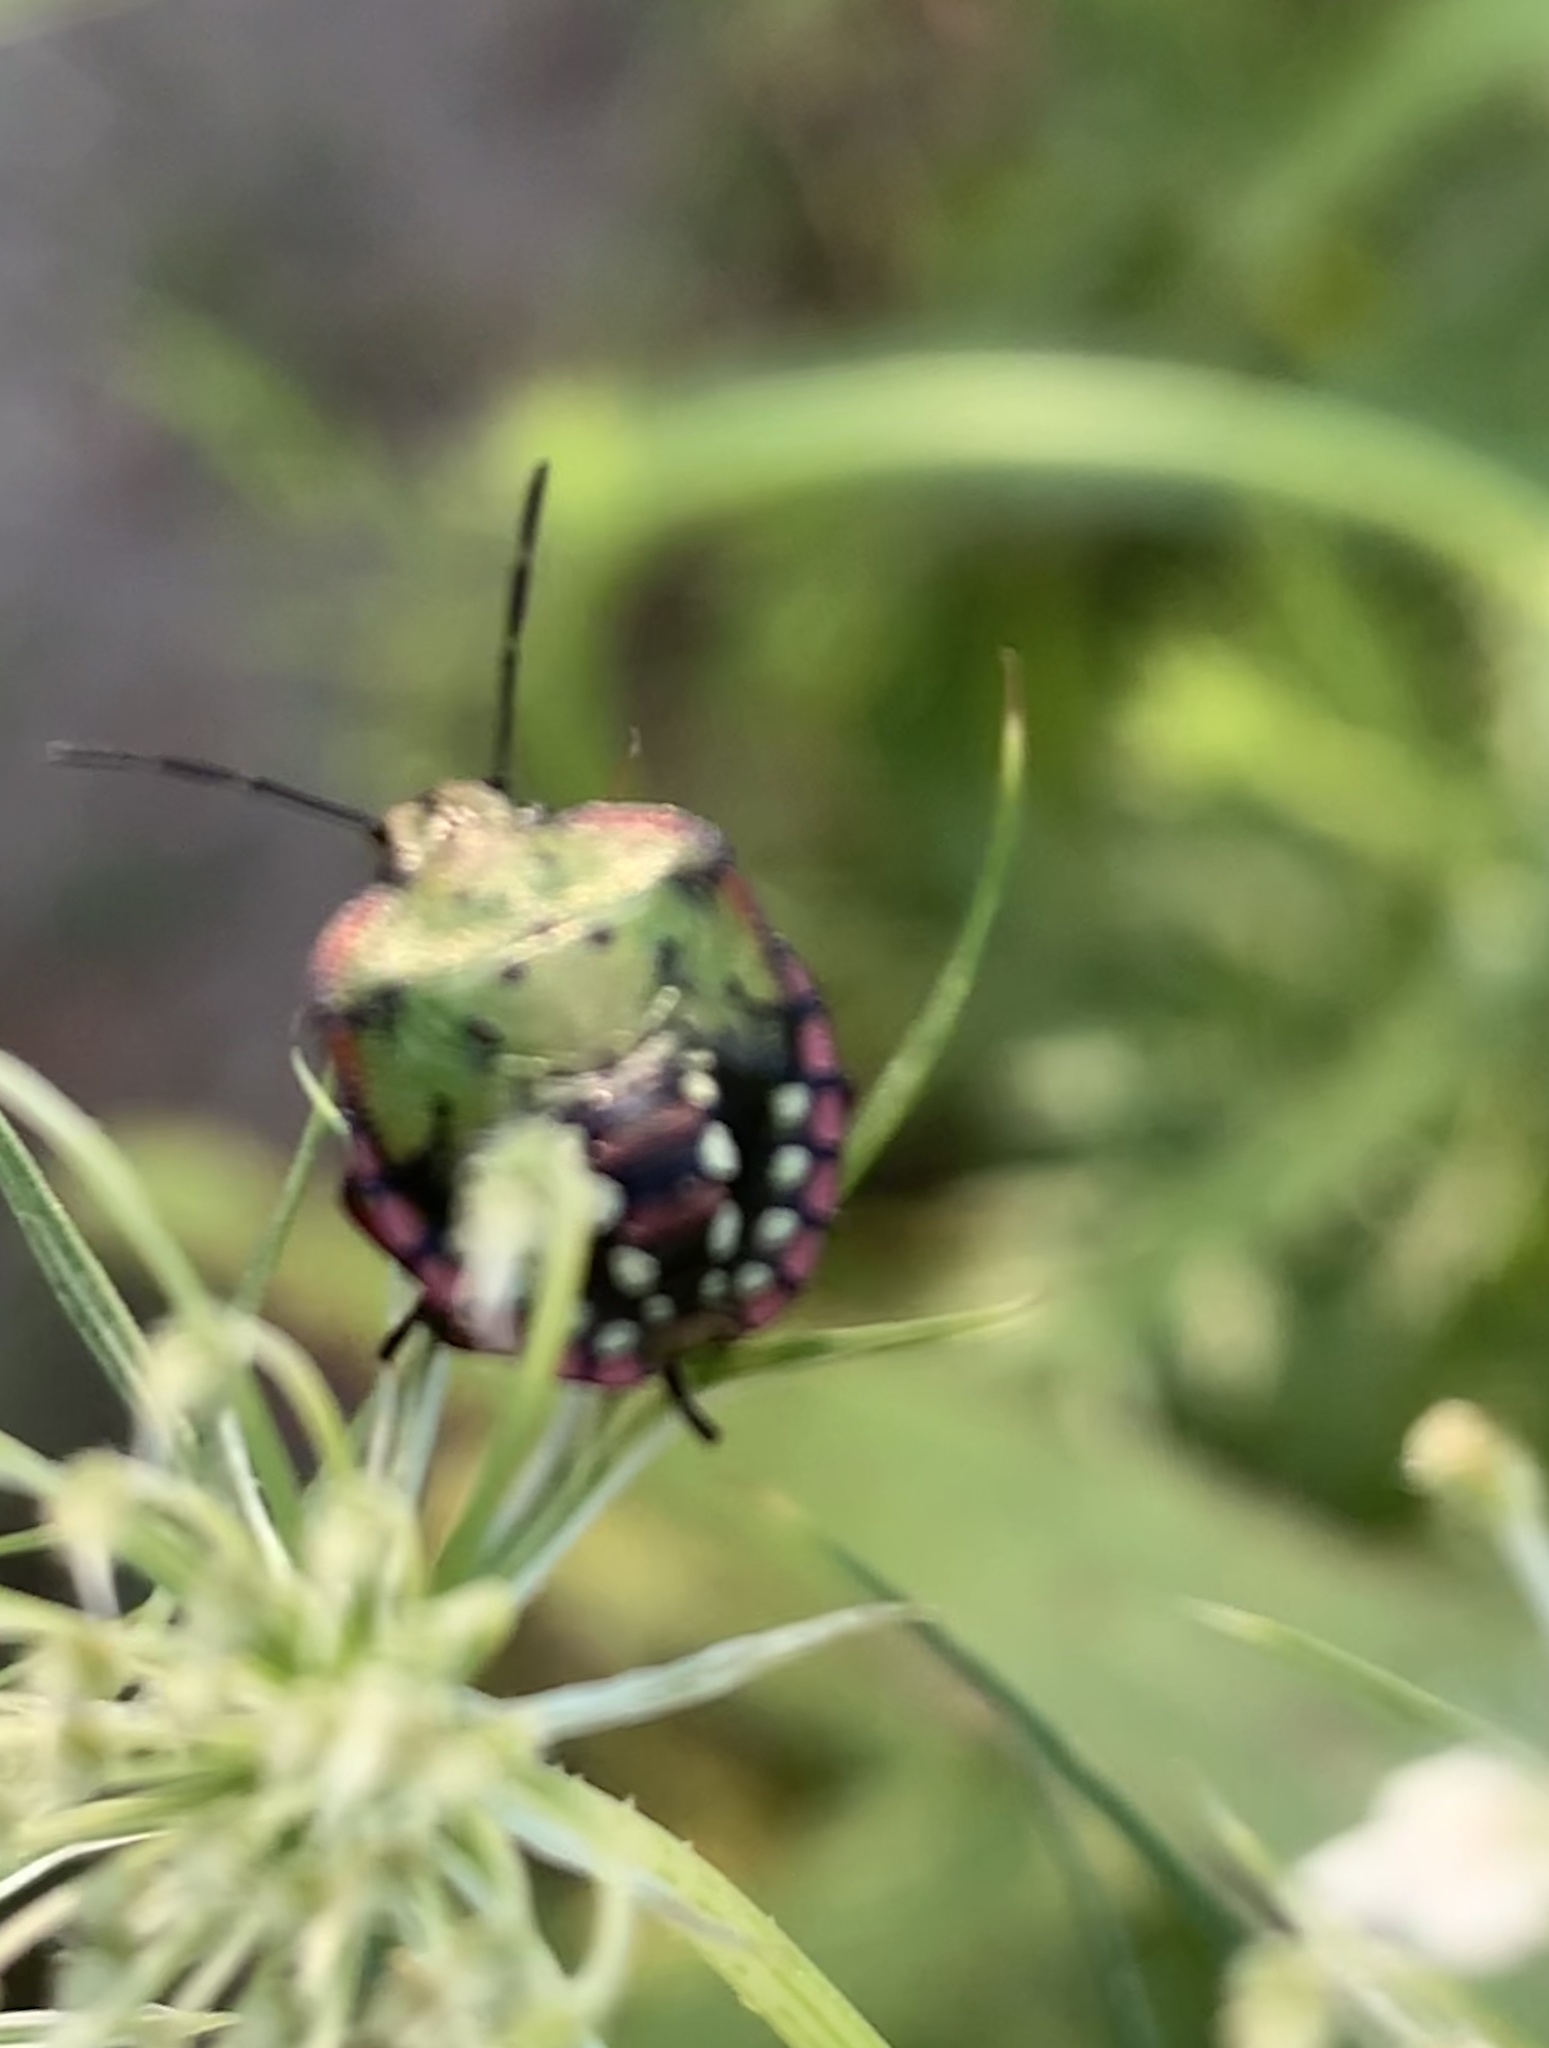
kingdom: Animalia
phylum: Arthropoda
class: Insecta
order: Hemiptera
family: Pentatomidae
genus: Nezara
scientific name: Nezara viridula
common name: Southern green stink bug
